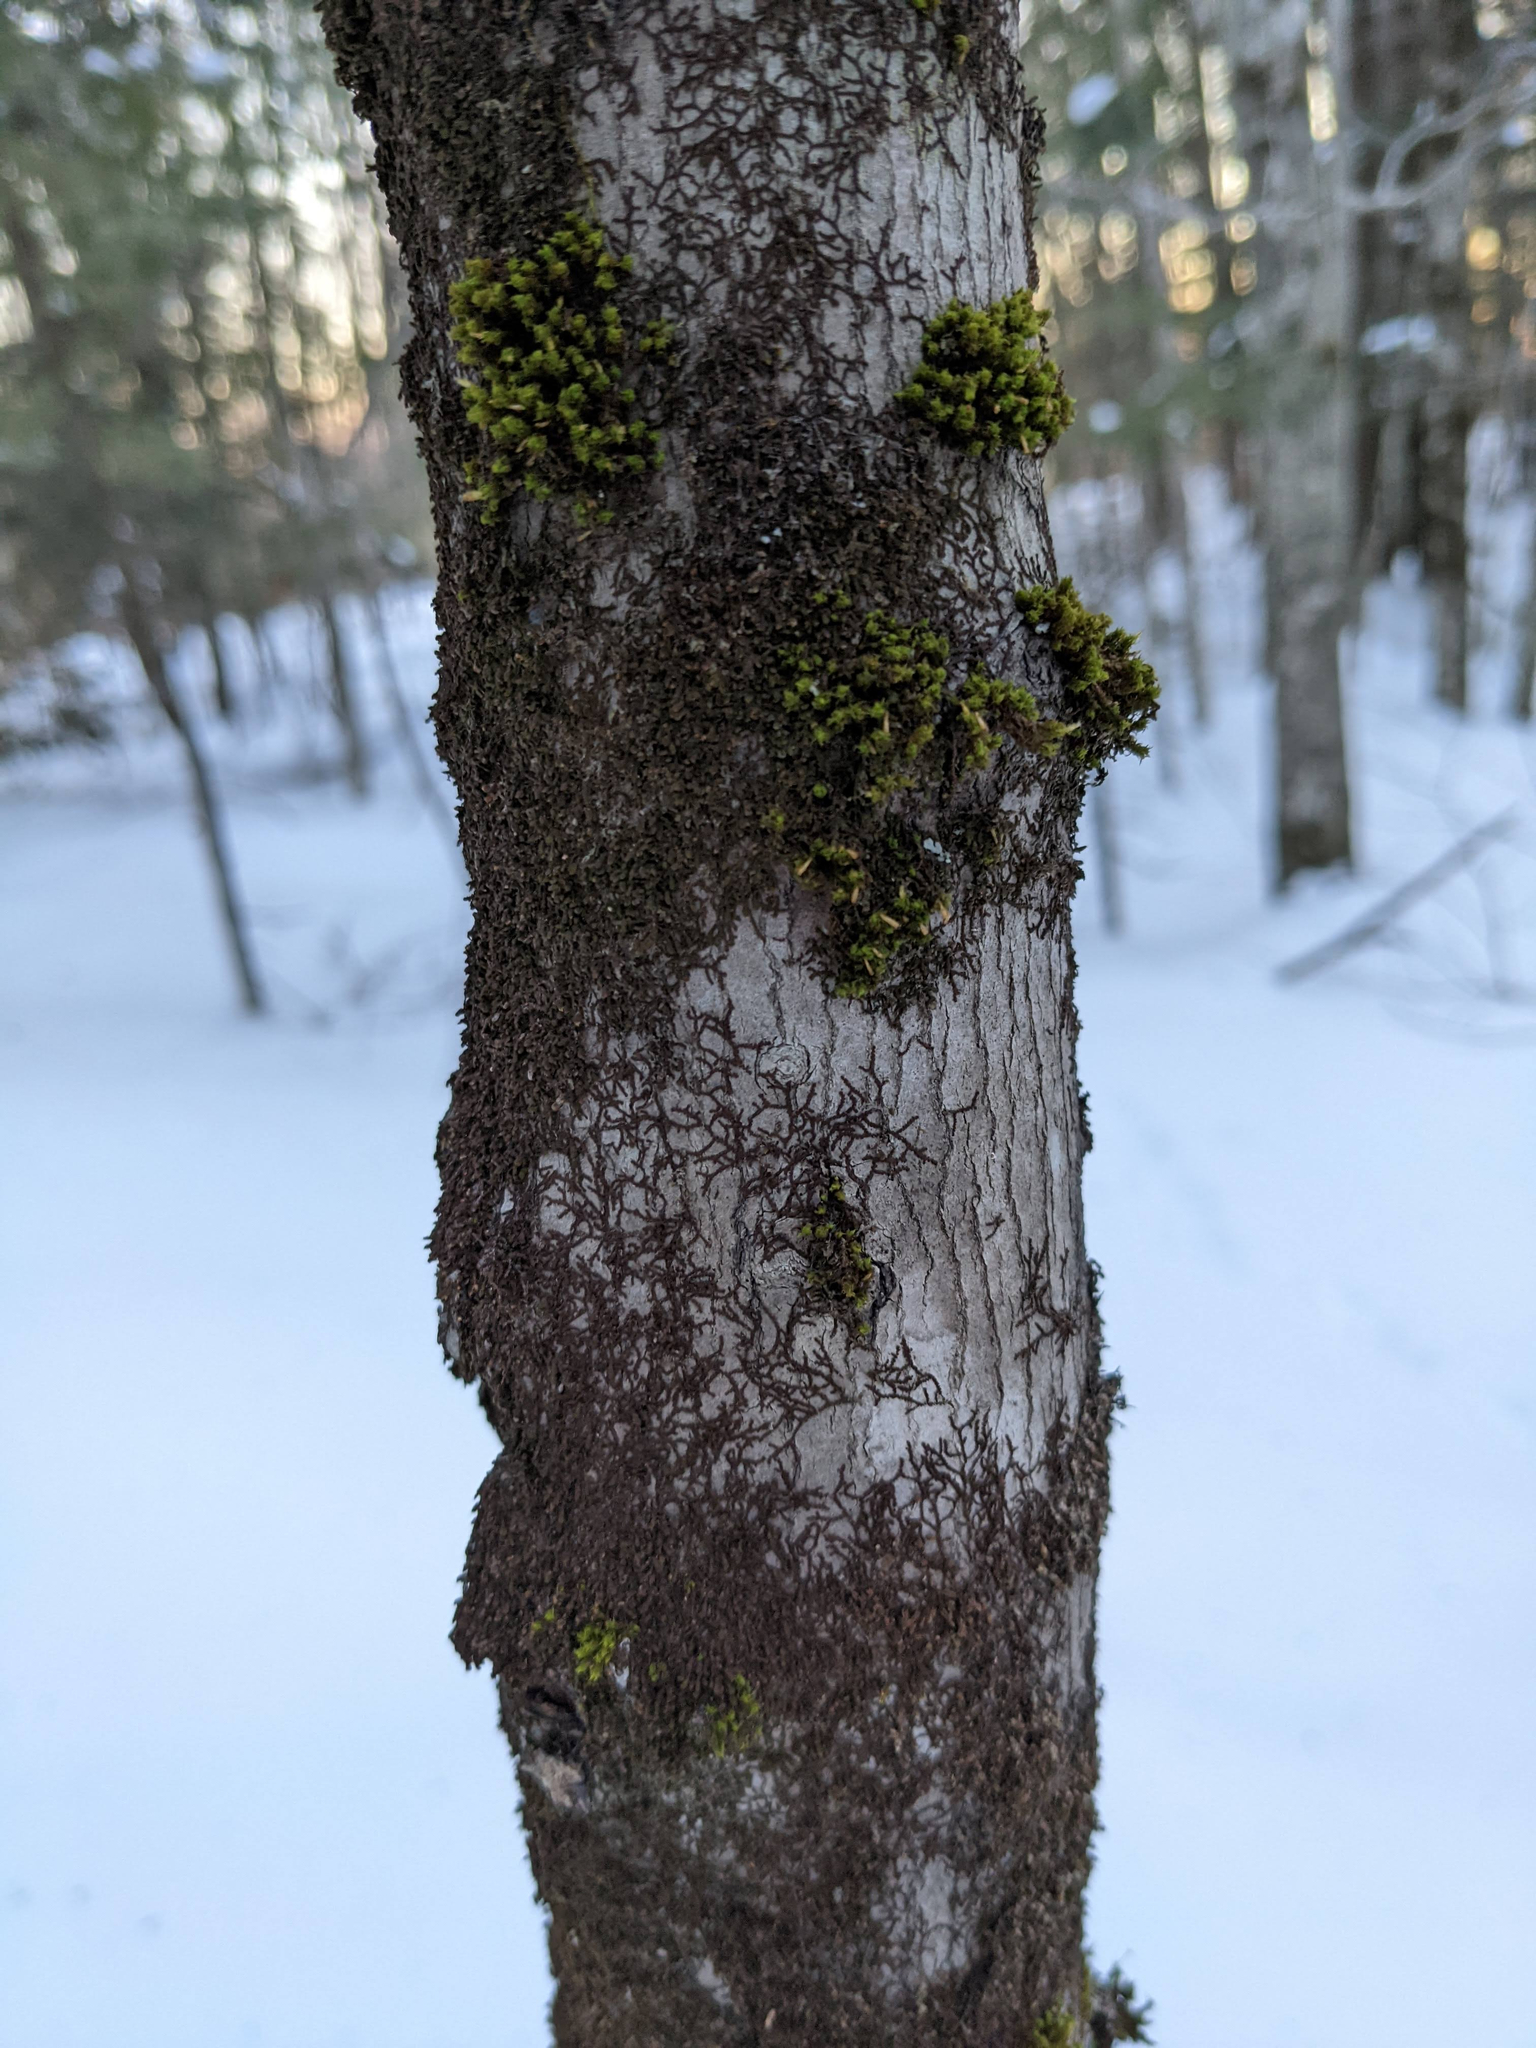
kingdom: Plantae
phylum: Bryophyta
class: Bryopsida
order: Orthotrichales
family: Orthotrichaceae
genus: Ulota
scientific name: Ulota crispa
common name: Crisped pincushion moss
